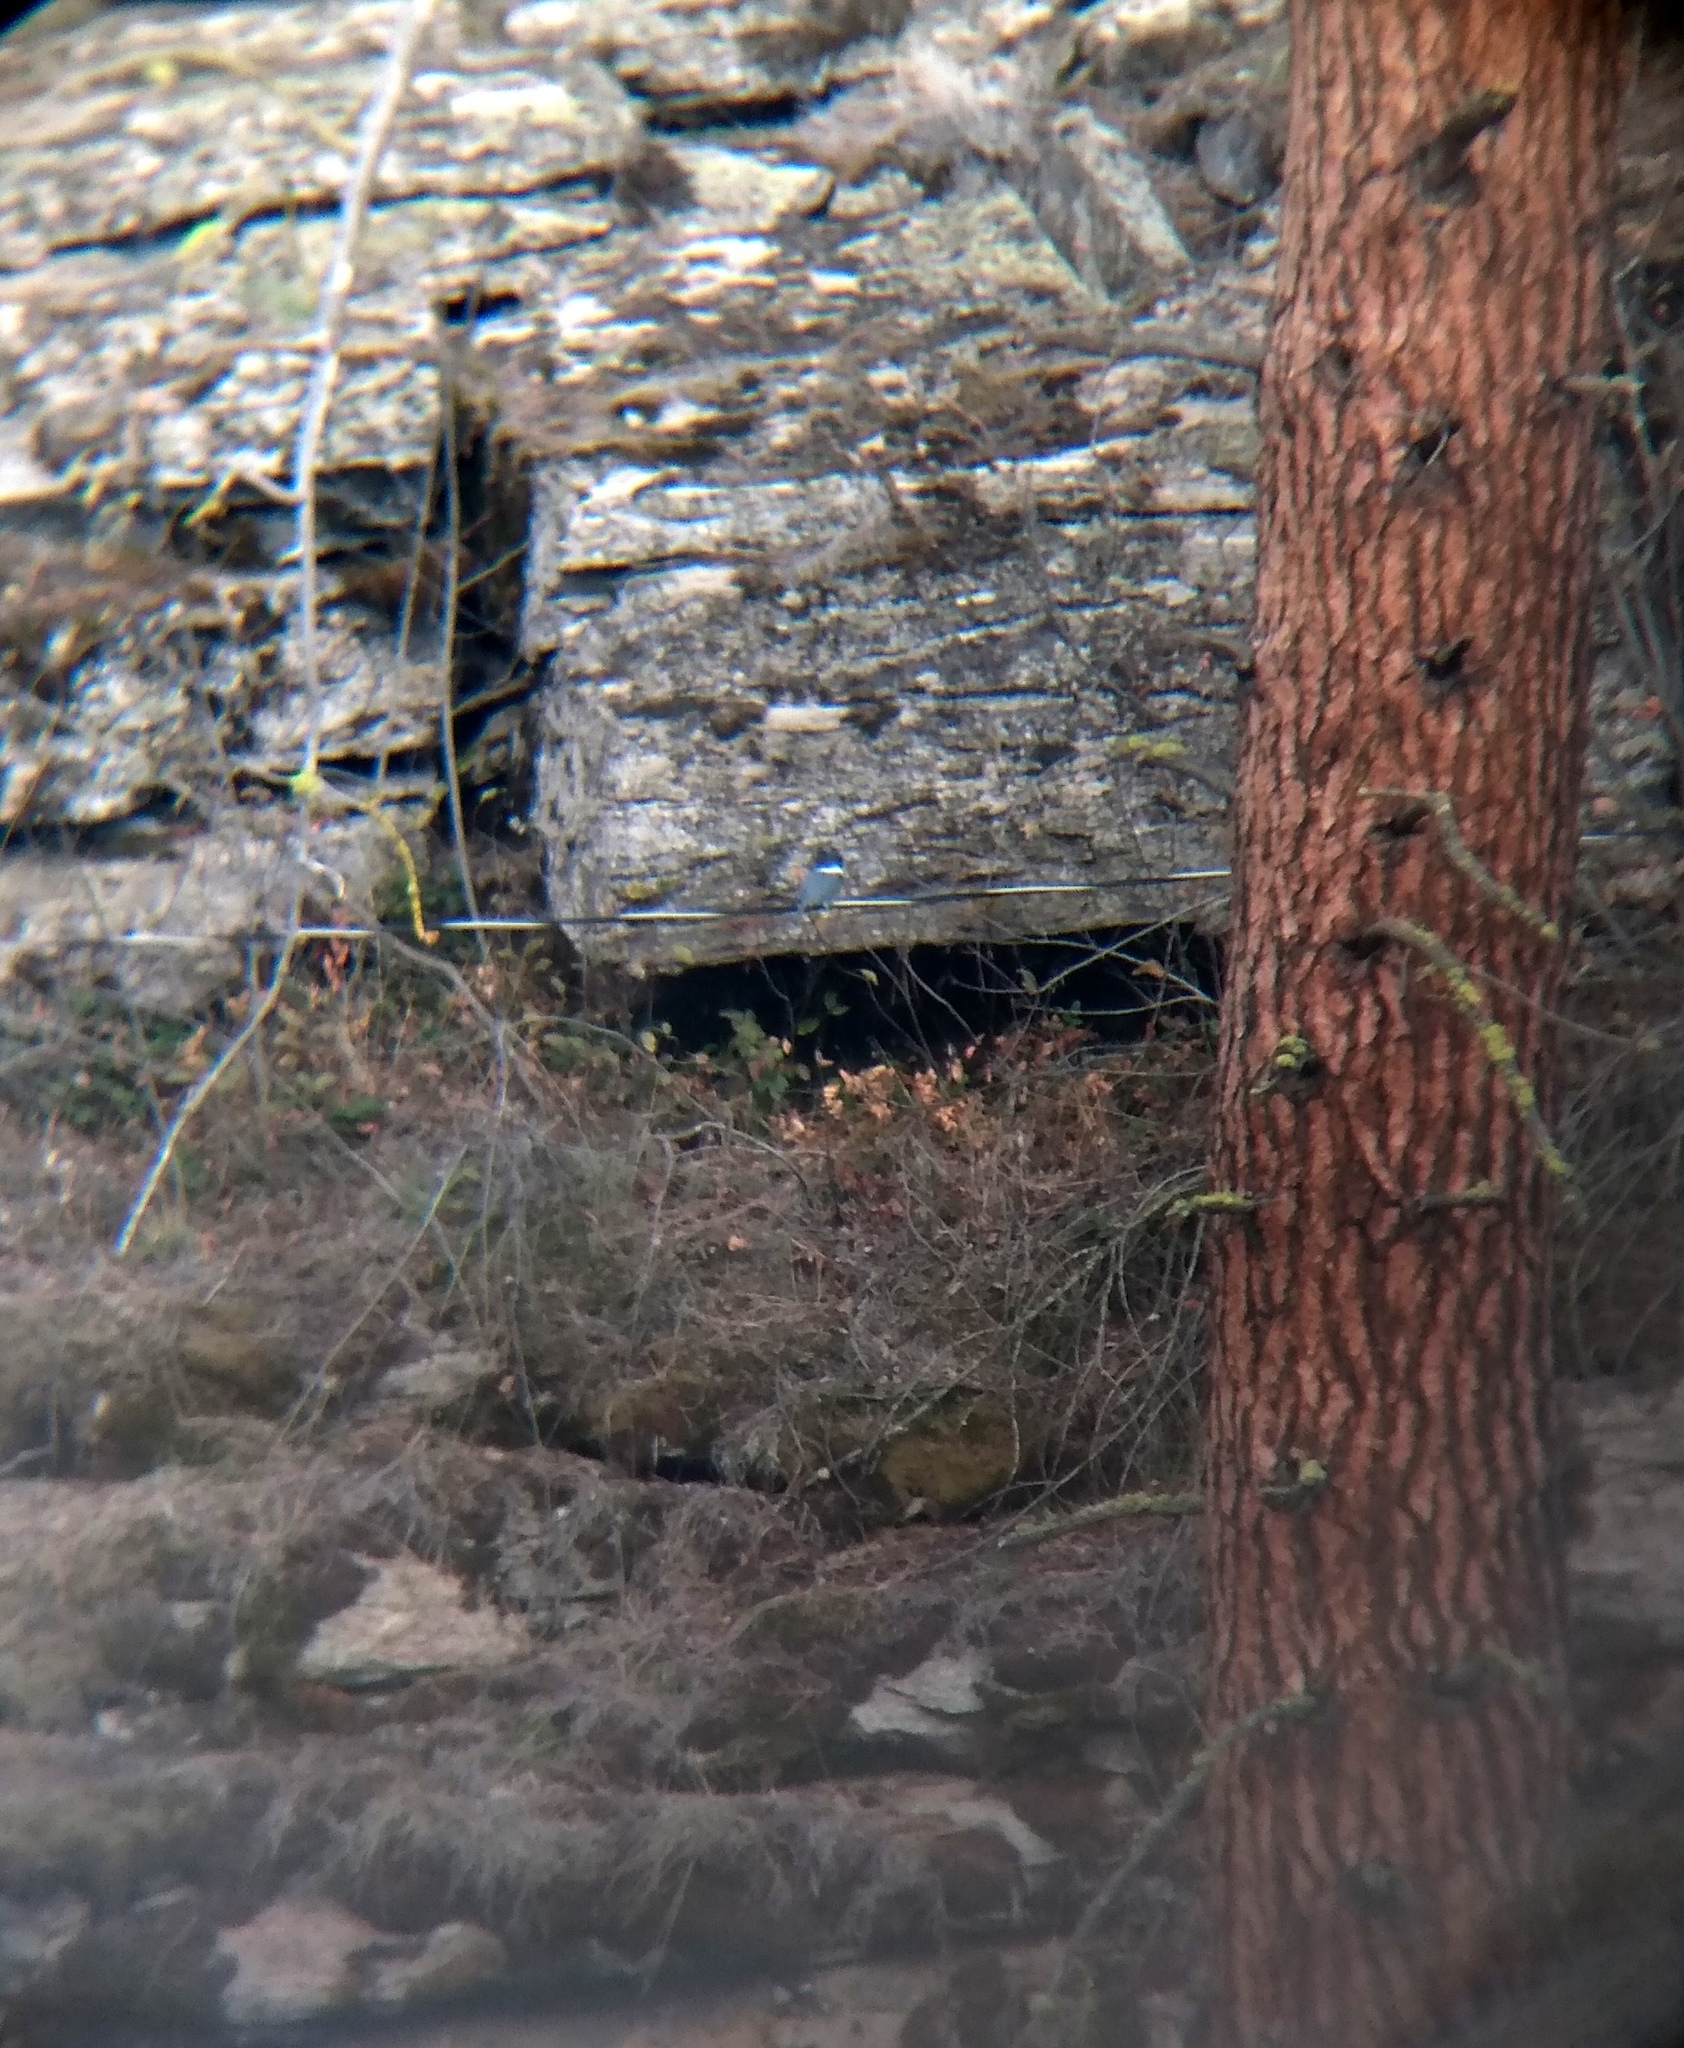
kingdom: Animalia
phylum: Chordata
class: Aves
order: Coraciiformes
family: Alcedinidae
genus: Megaceryle
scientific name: Megaceryle alcyon
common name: Belted kingfisher
